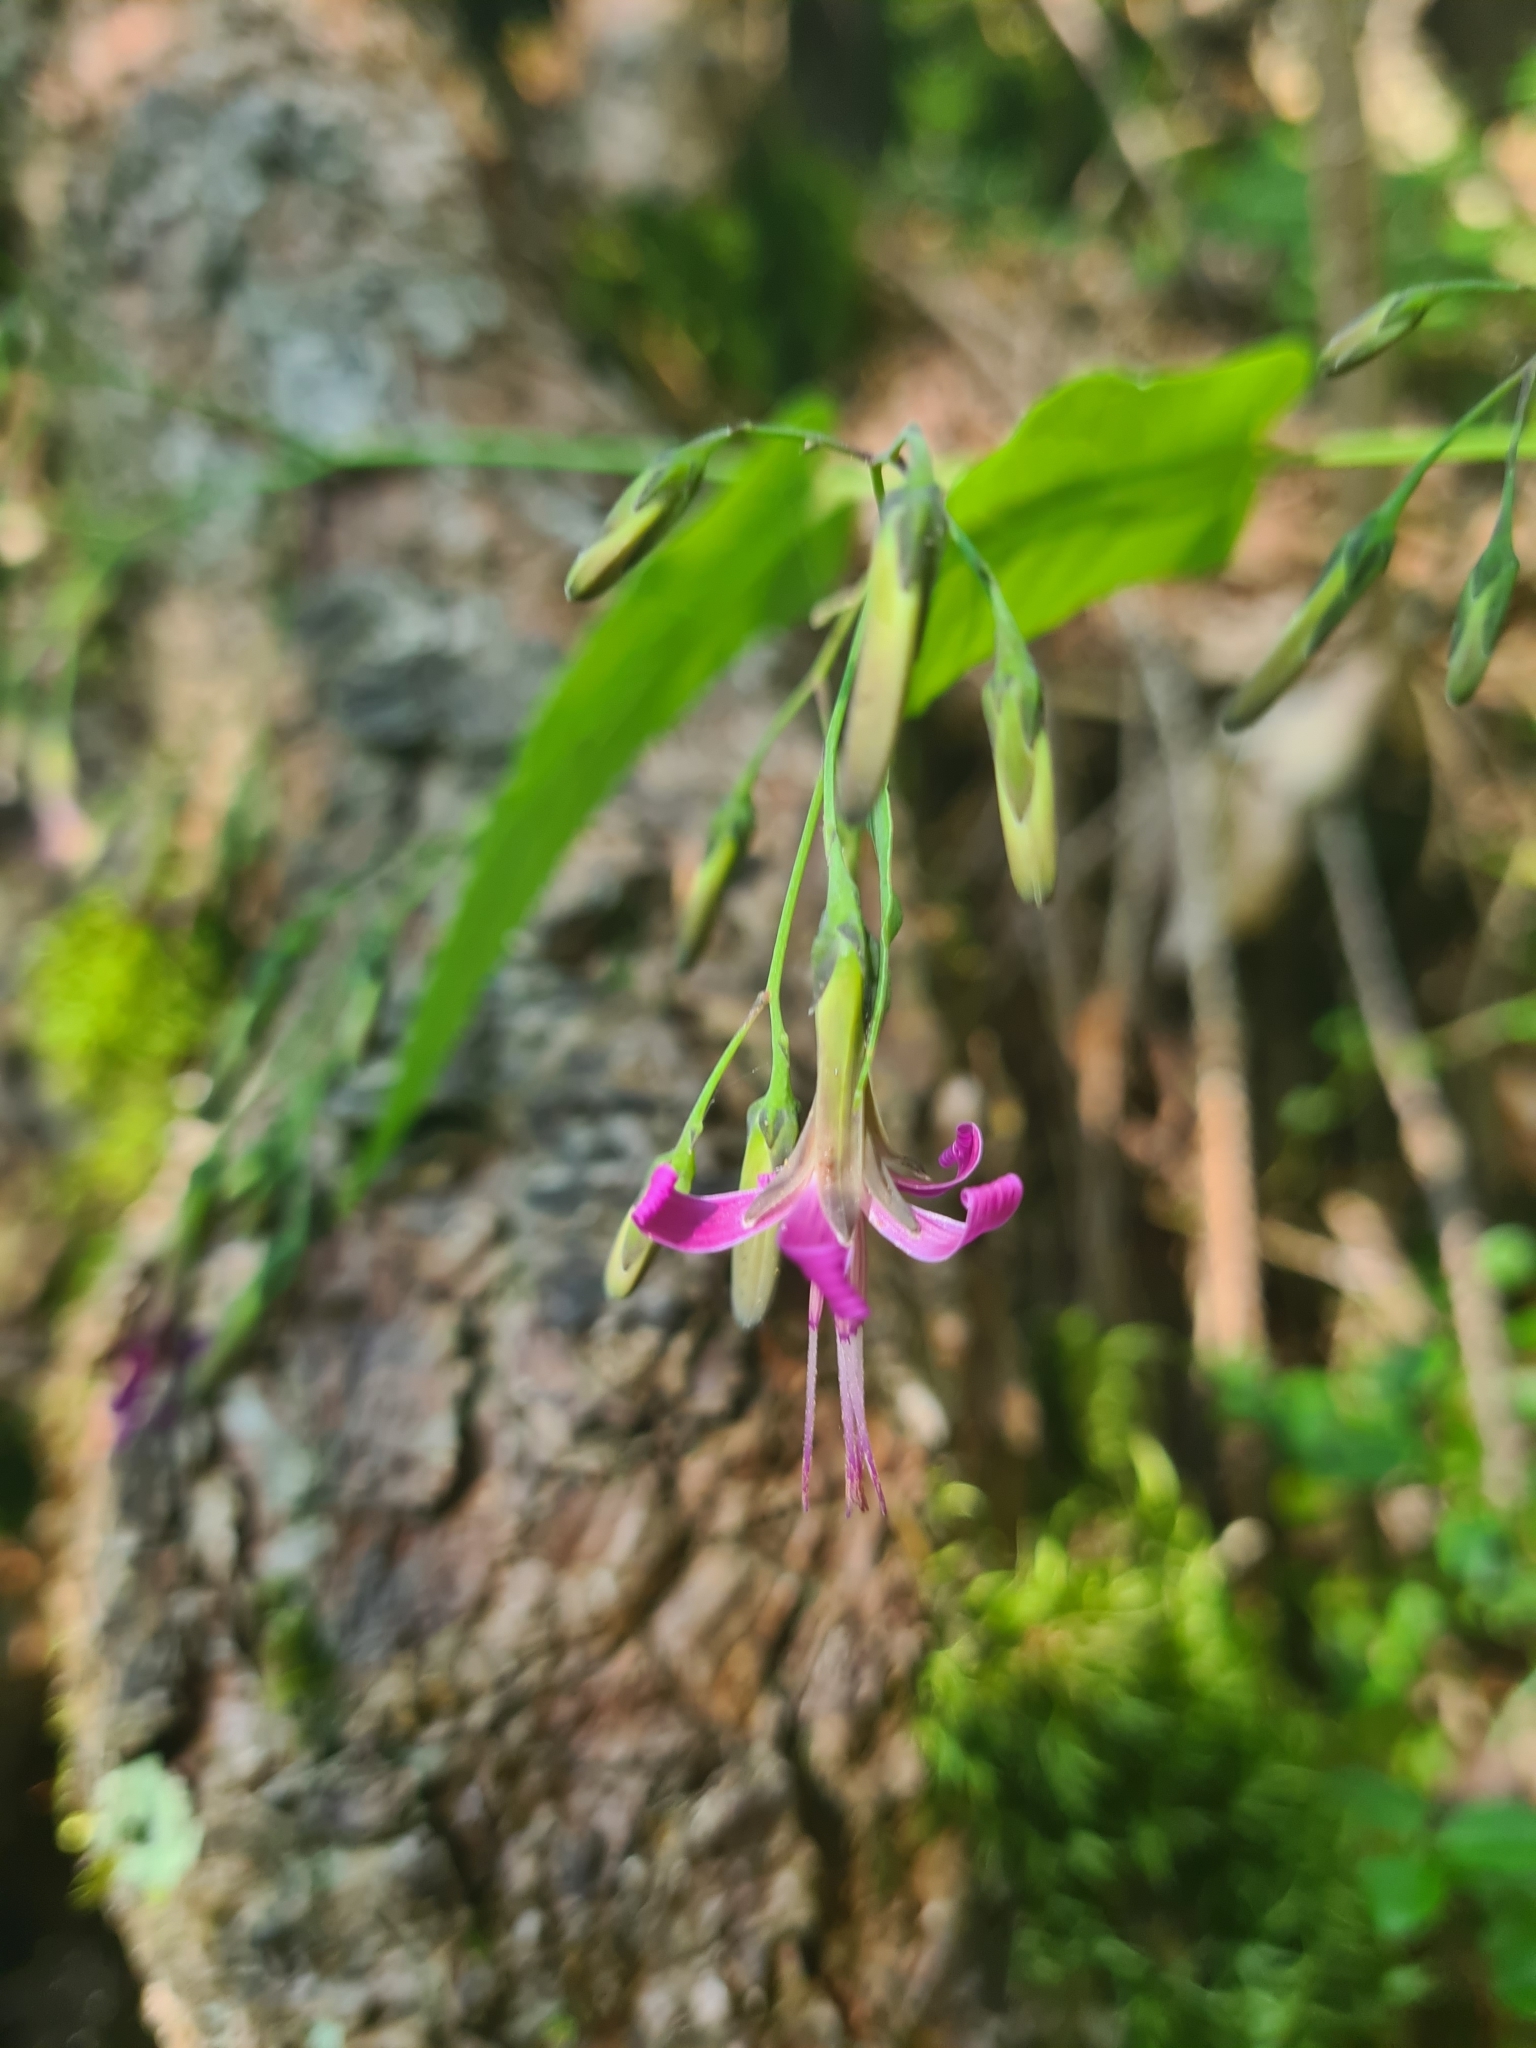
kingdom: Plantae
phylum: Tracheophyta
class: Magnoliopsida
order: Asterales
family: Asteraceae
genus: Prenanthes
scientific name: Prenanthes purpurea
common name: Purple lettuce
